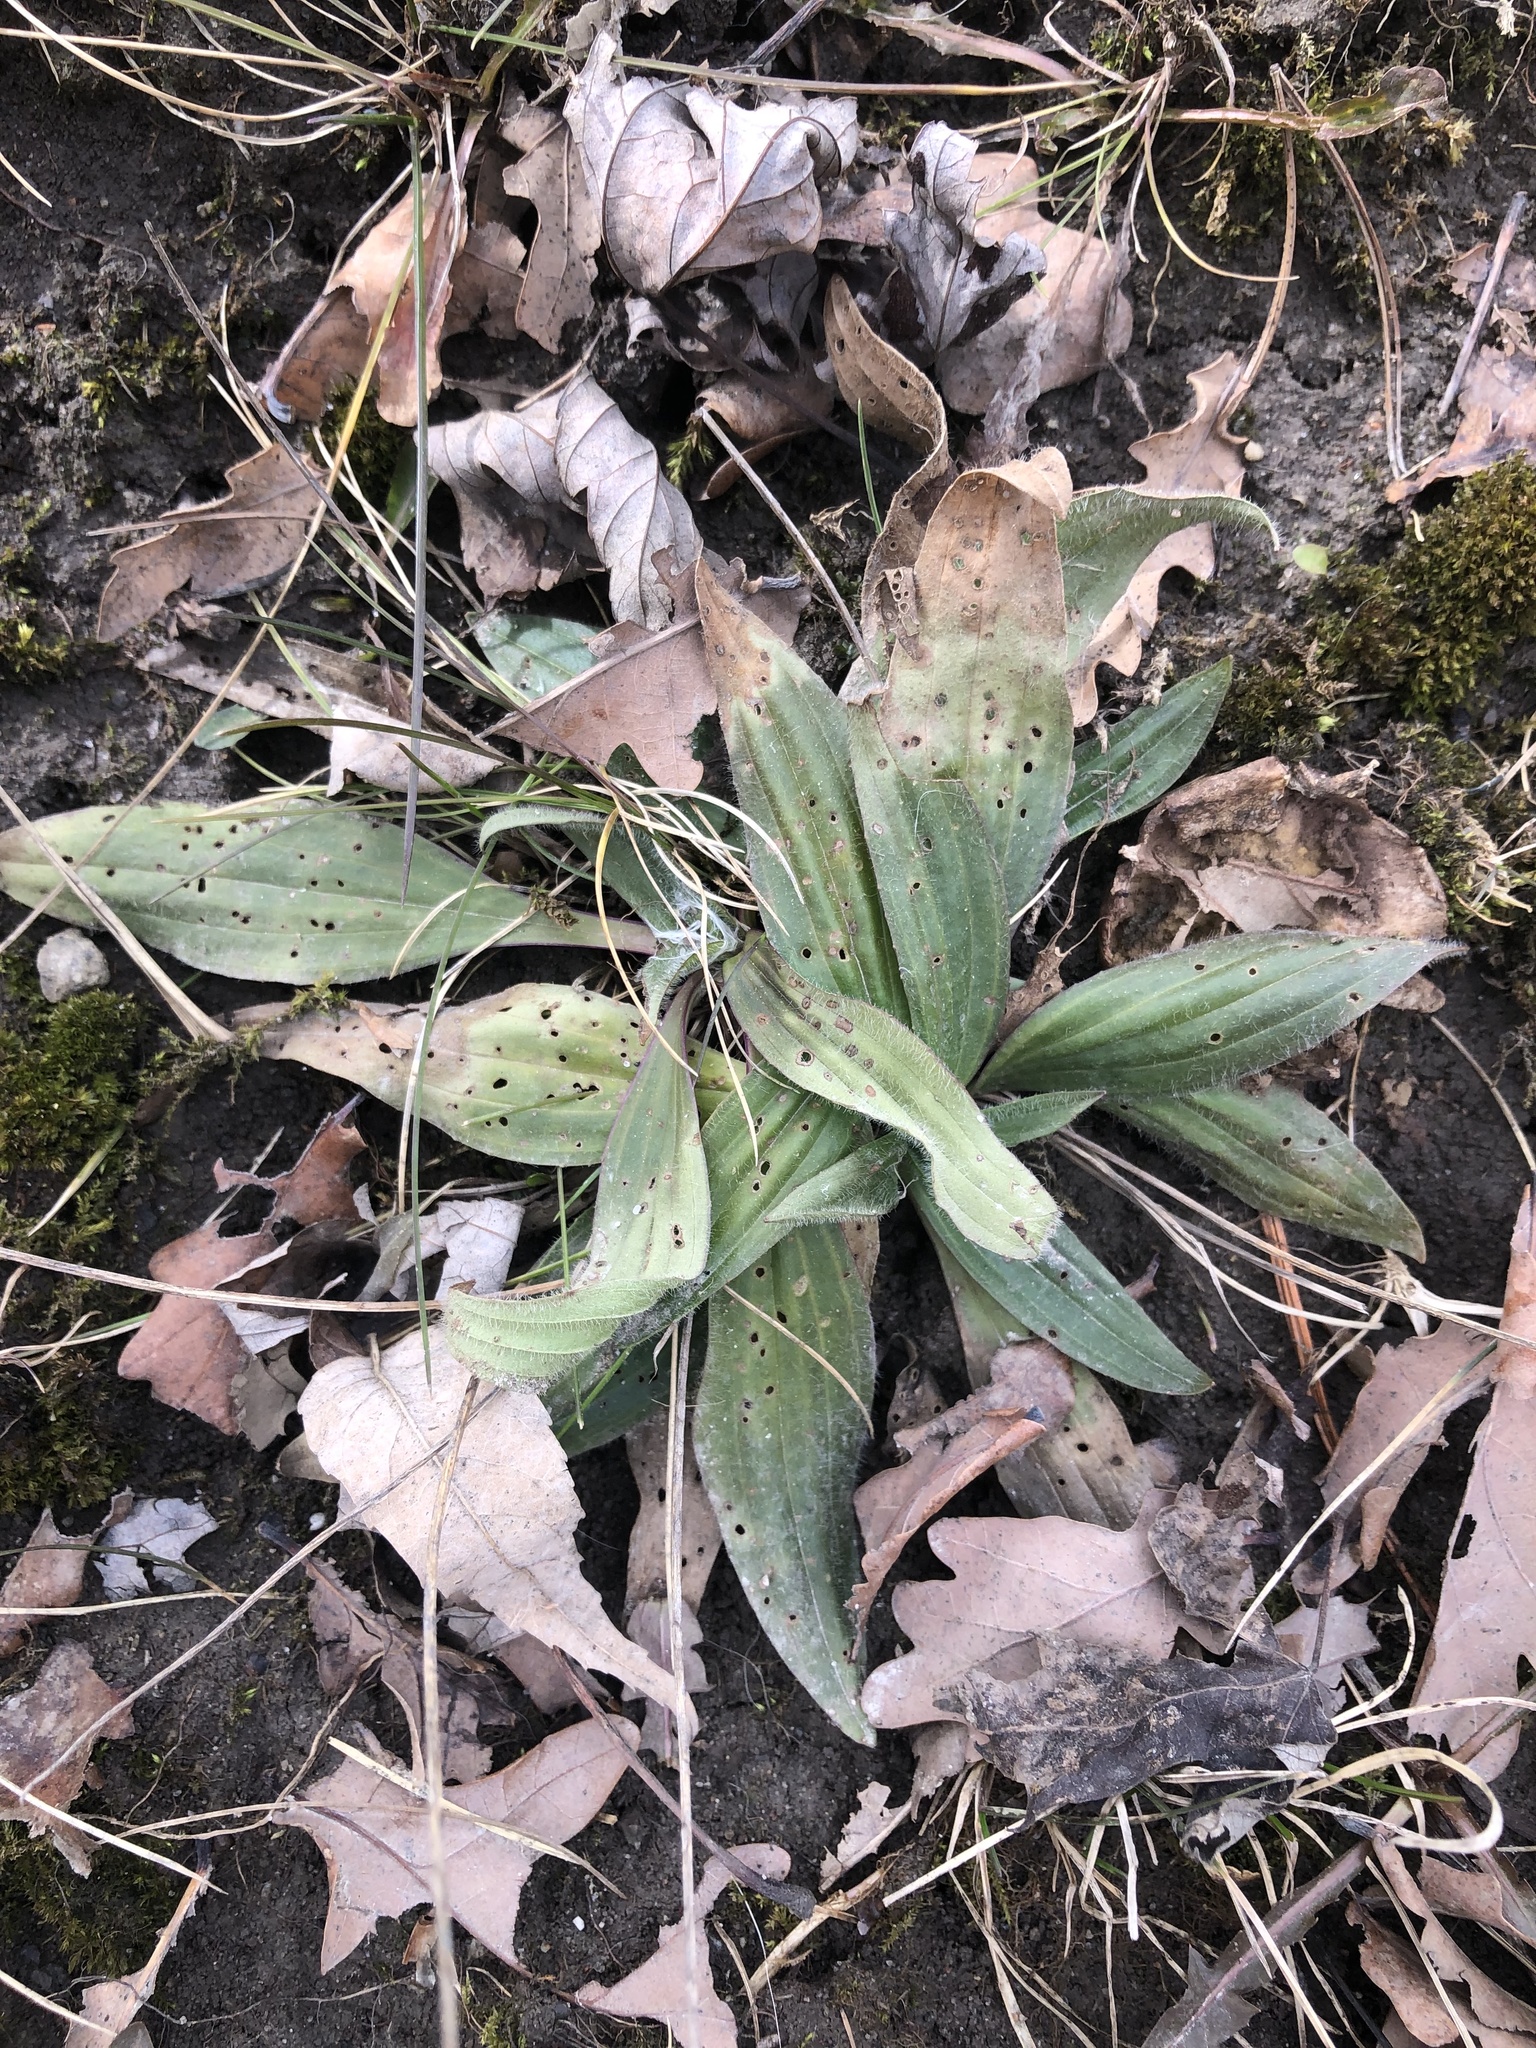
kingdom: Plantae
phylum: Tracheophyta
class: Magnoliopsida
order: Lamiales
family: Plantaginaceae
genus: Plantago
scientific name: Plantago lanceolata
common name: Ribwort plantain
